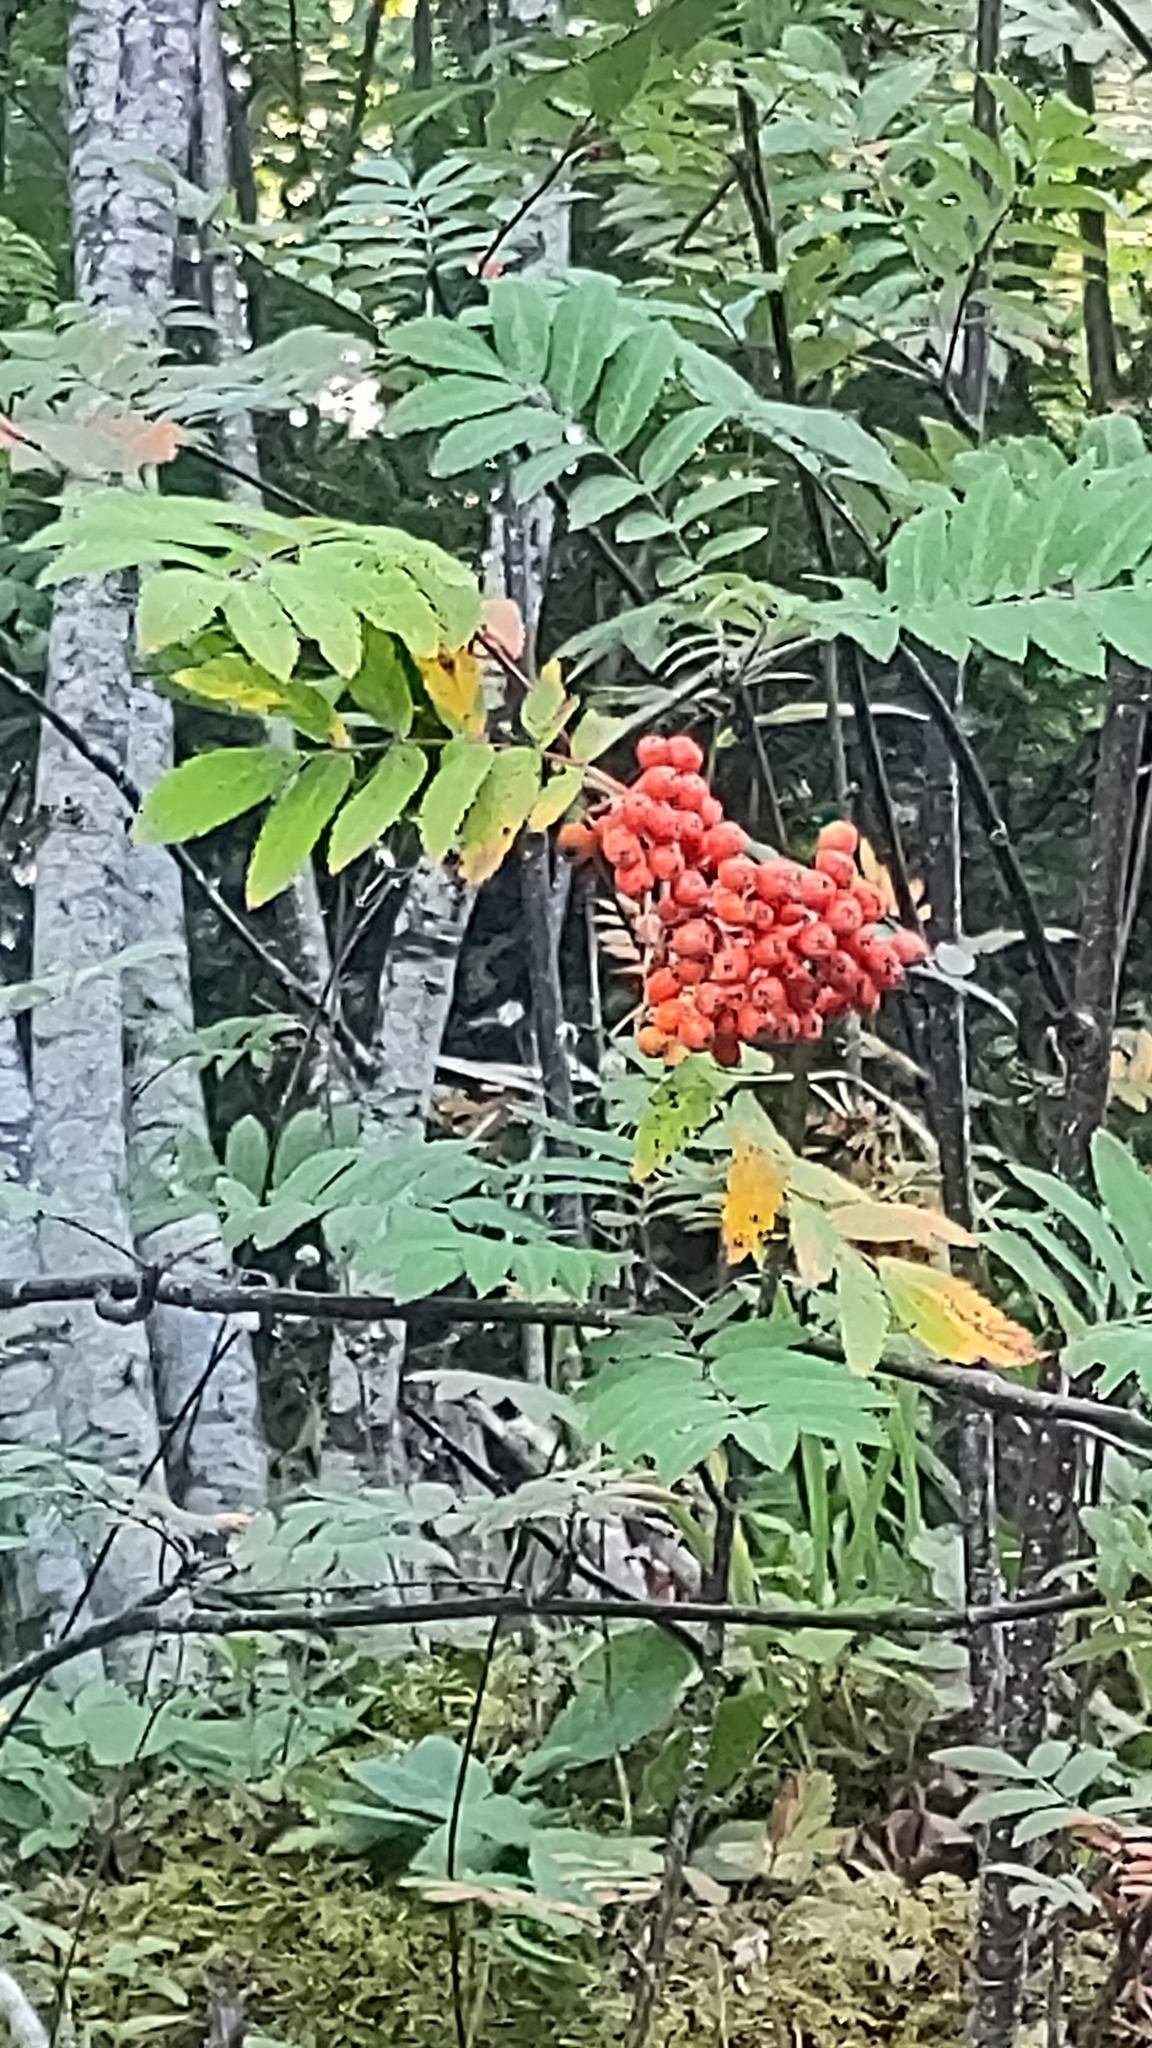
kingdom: Plantae
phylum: Tracheophyta
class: Magnoliopsida
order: Rosales
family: Rosaceae
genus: Sorbus
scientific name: Sorbus aucuparia
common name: Rowan
